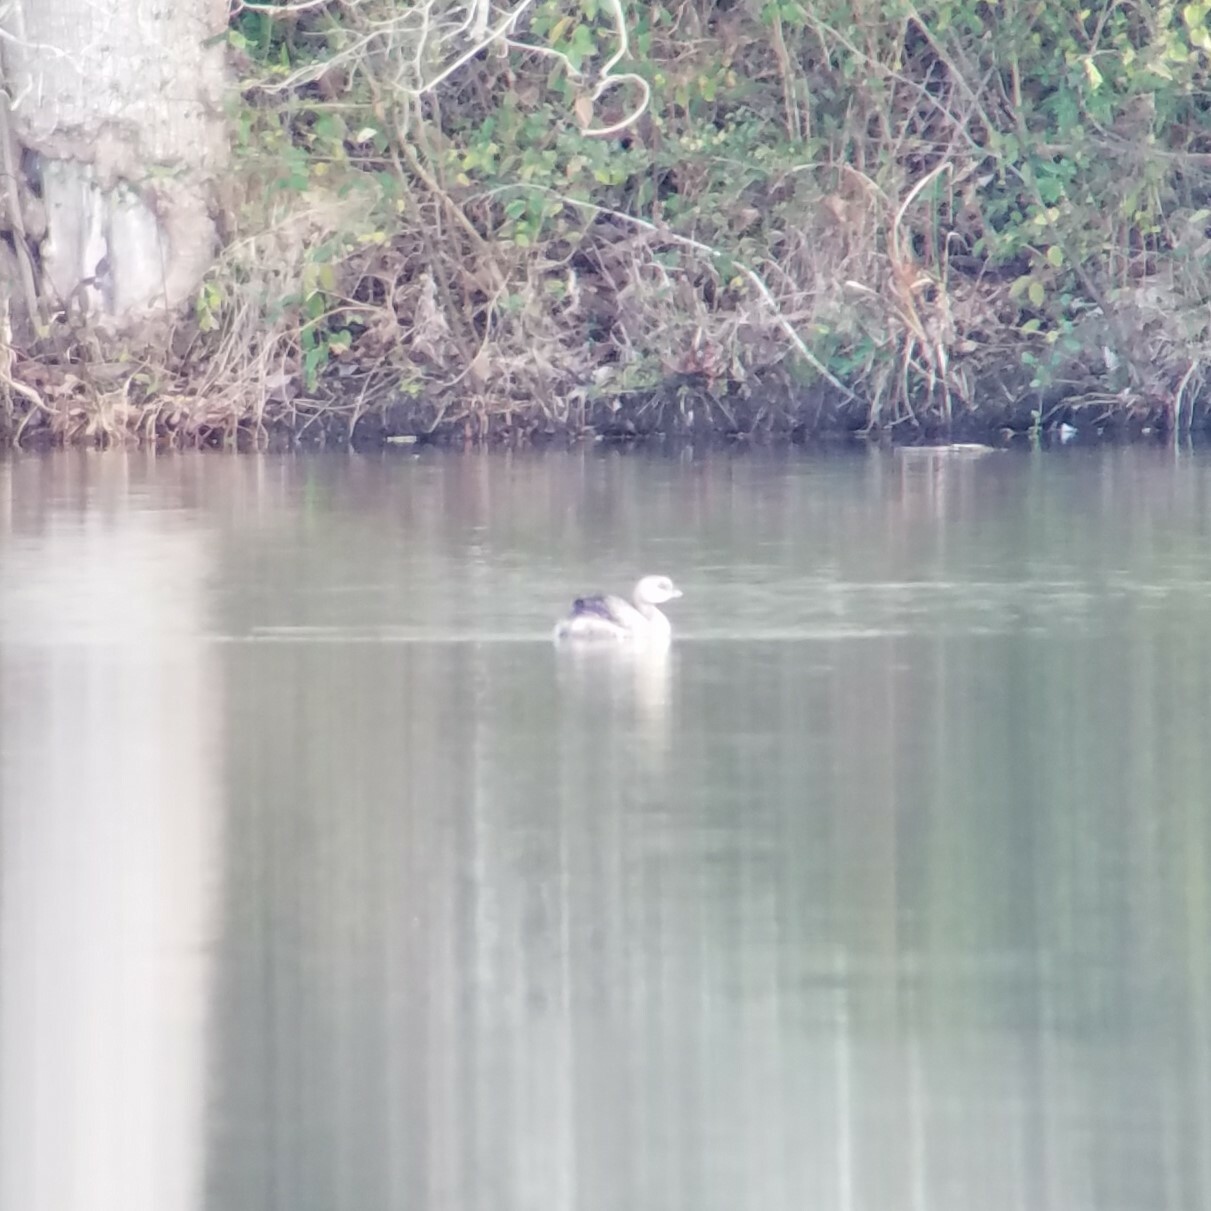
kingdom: Animalia
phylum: Chordata
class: Aves
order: Podicipediformes
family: Podicipedidae
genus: Podilymbus
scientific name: Podilymbus podiceps
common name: Pied-billed grebe
